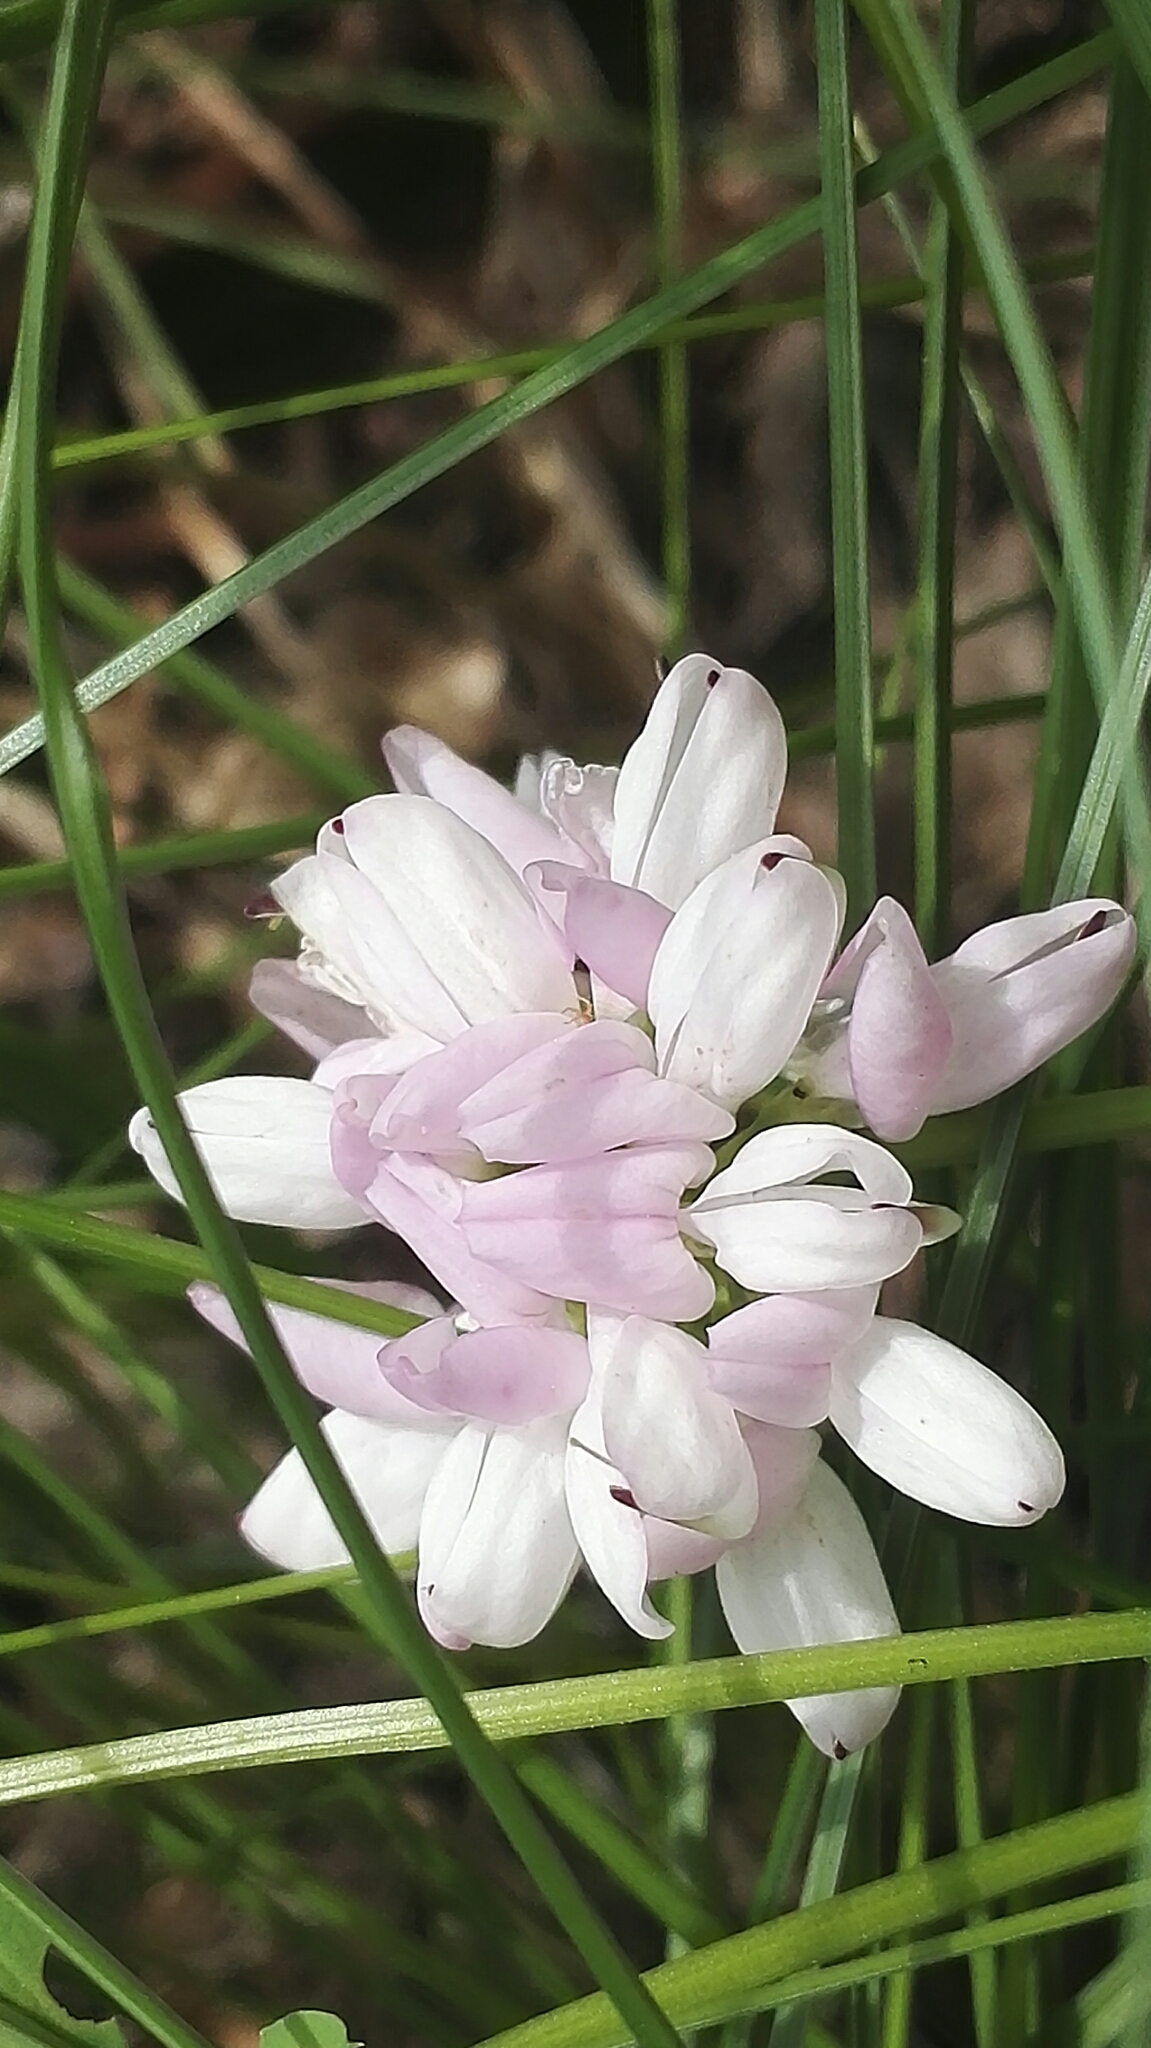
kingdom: Plantae
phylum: Tracheophyta
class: Magnoliopsida
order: Fabales
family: Fabaceae
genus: Coronilla
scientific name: Coronilla varia
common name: Crownvetch
